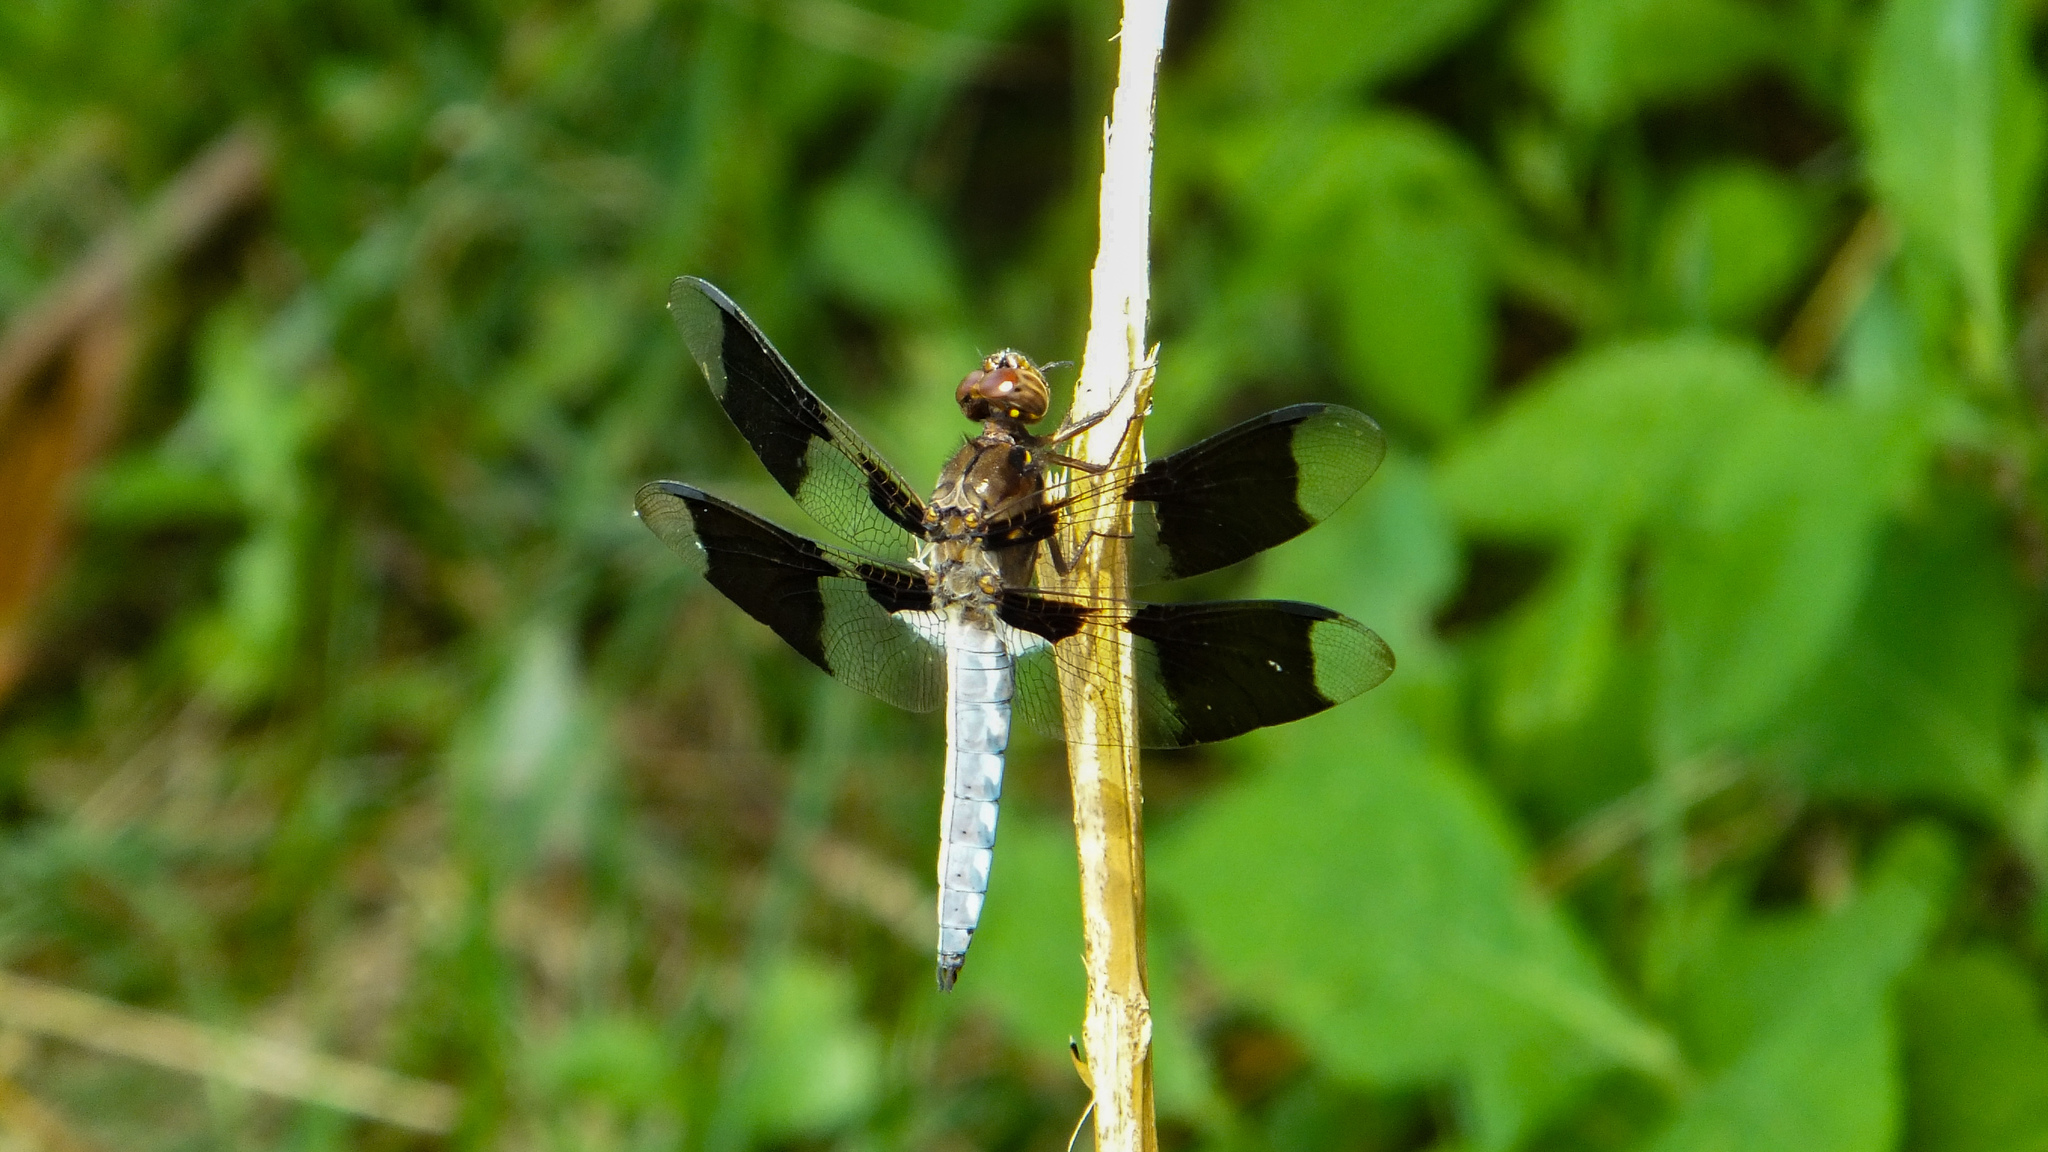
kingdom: Animalia
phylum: Arthropoda
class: Insecta
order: Odonata
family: Libellulidae
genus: Plathemis
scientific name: Plathemis lydia
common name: Common whitetail
